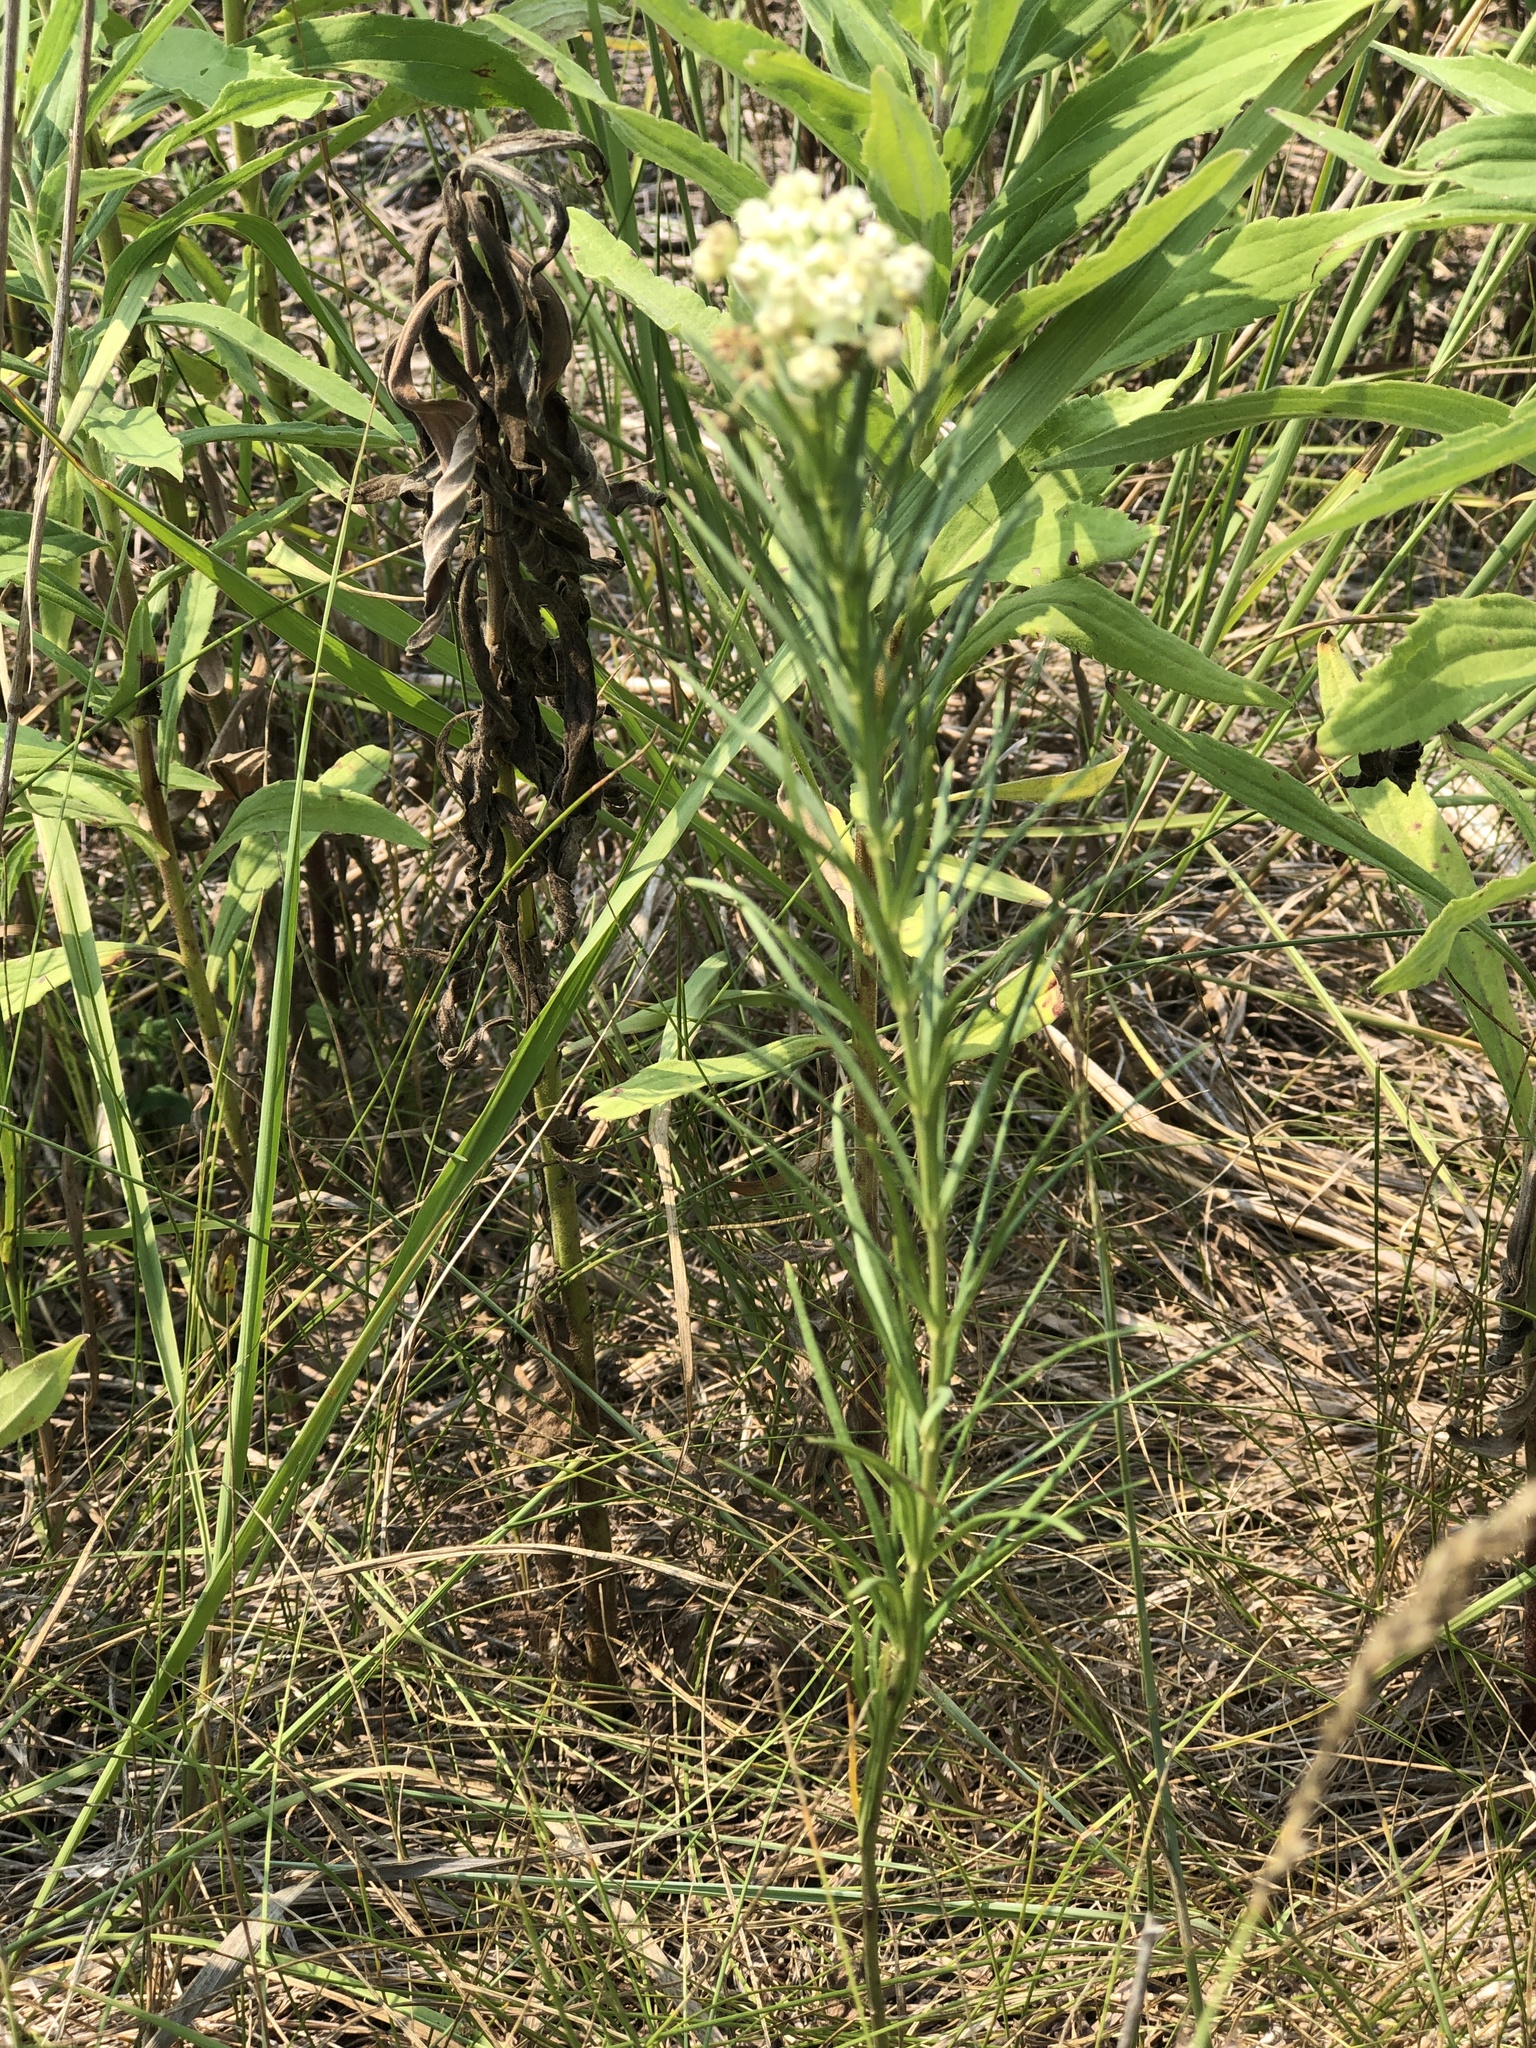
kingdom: Plantae
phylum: Tracheophyta
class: Magnoliopsida
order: Gentianales
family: Apocynaceae
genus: Asclepias
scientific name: Asclepias verticillata
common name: Eastern whorled milkweed
